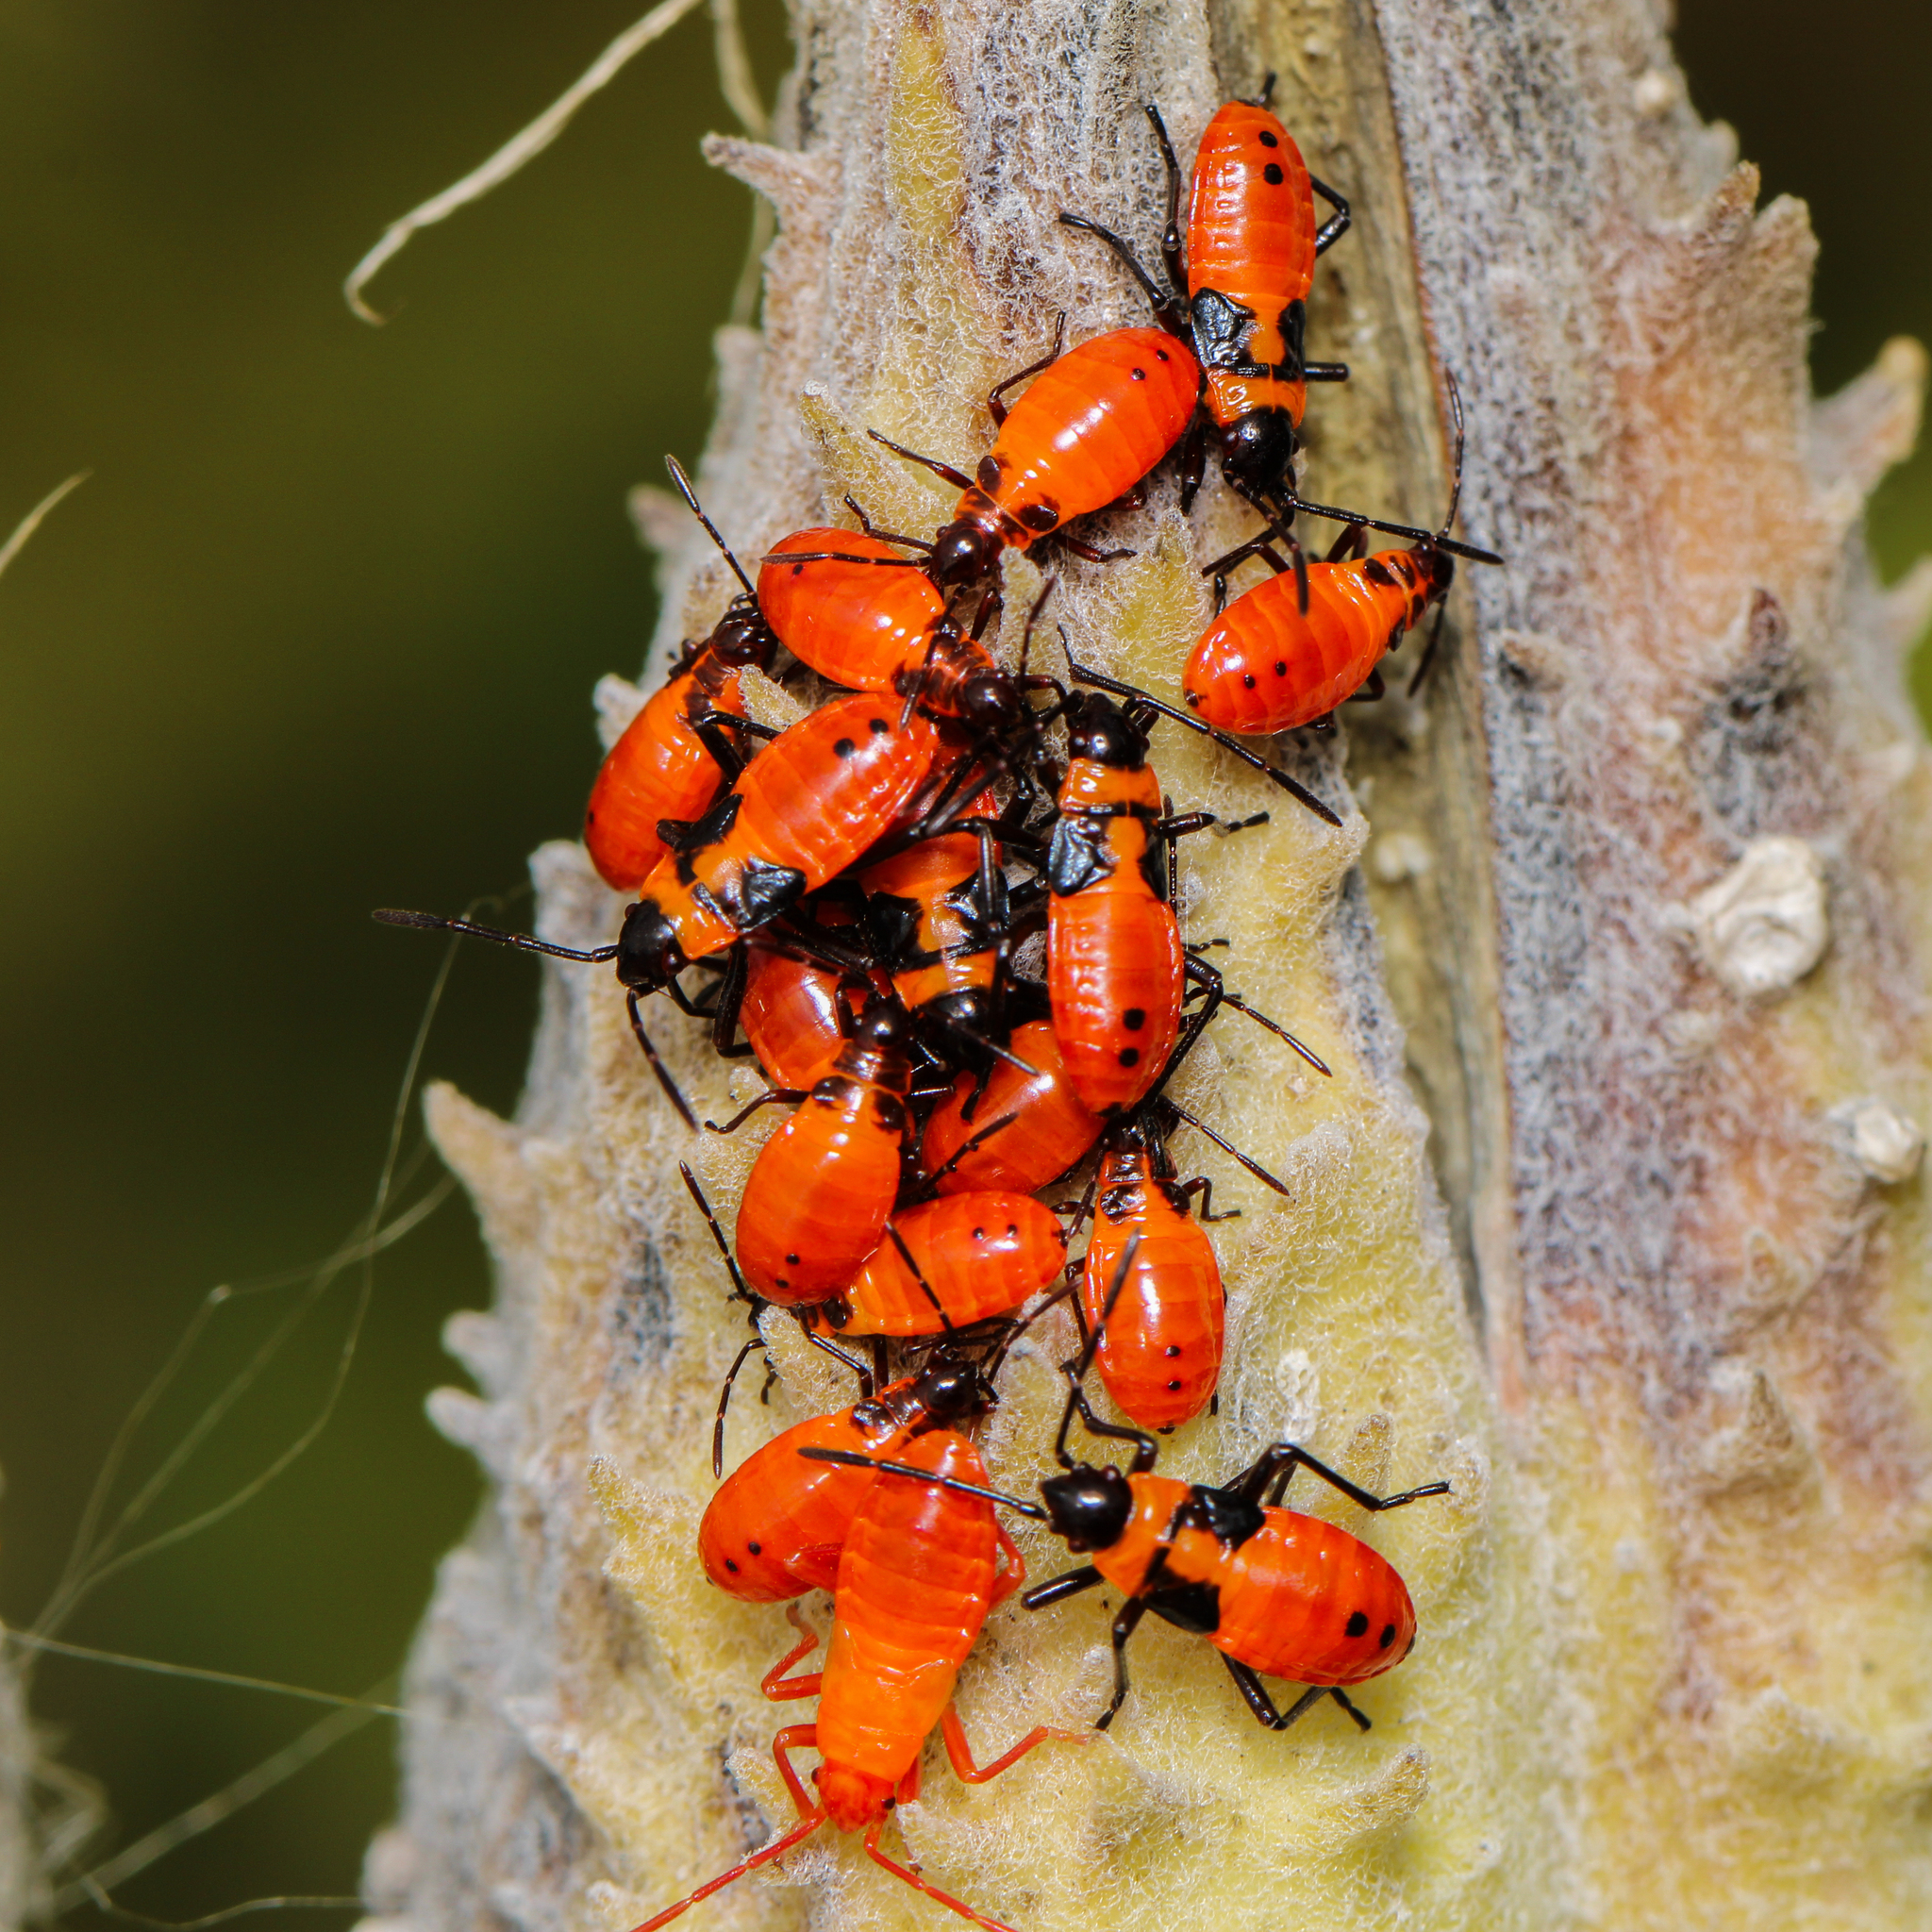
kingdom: Animalia
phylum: Arthropoda
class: Insecta
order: Hemiptera
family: Lygaeidae
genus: Oncopeltus
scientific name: Oncopeltus fasciatus
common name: Large milkweed bug
